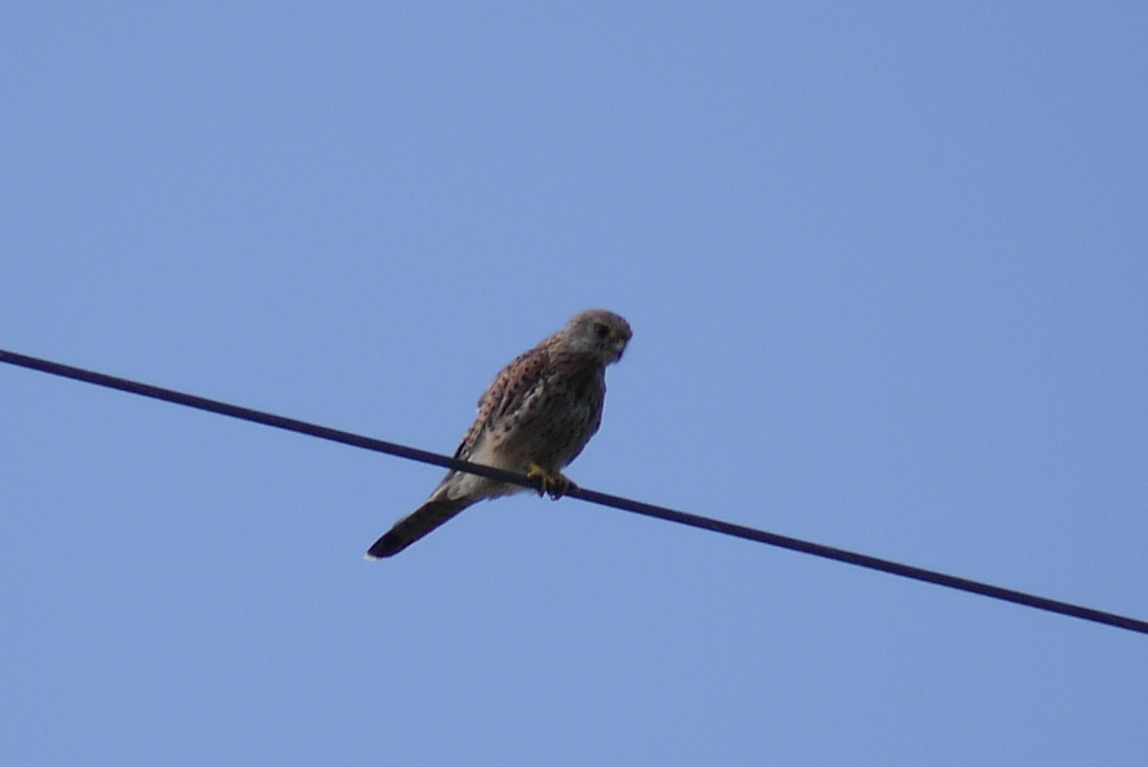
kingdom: Animalia
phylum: Chordata
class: Aves
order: Falconiformes
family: Falconidae
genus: Falco
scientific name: Falco tinnunculus
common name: Common kestrel
